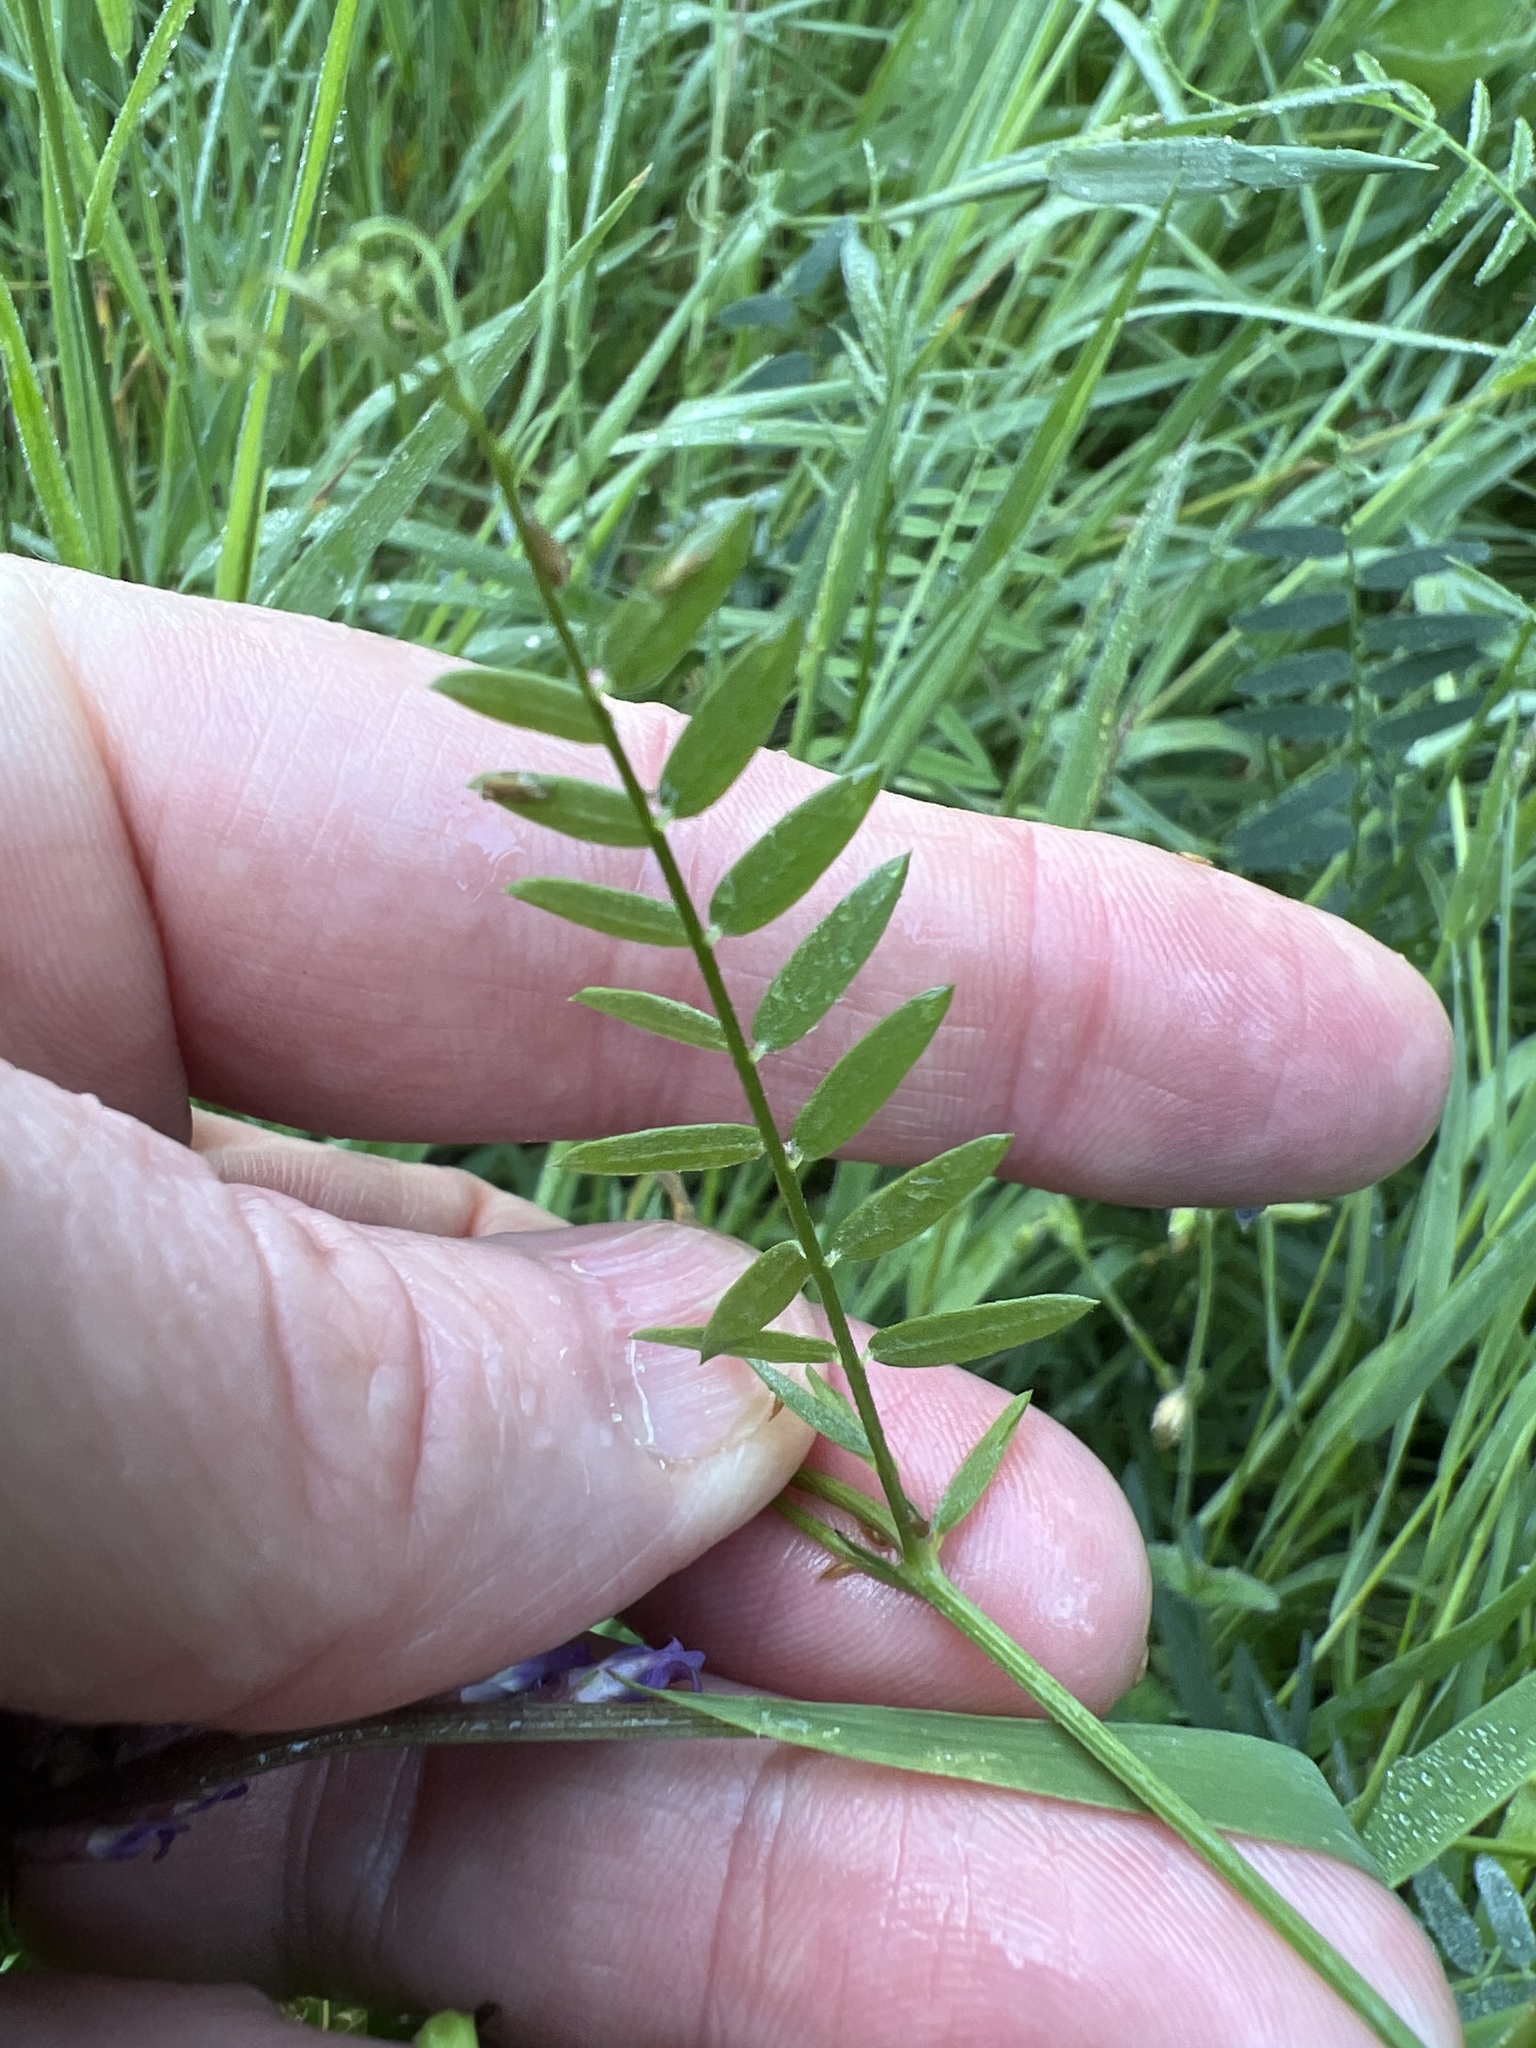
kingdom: Plantae
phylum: Tracheophyta
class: Magnoliopsida
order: Fabales
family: Fabaceae
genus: Vicia
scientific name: Vicia cracca
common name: Bird vetch
